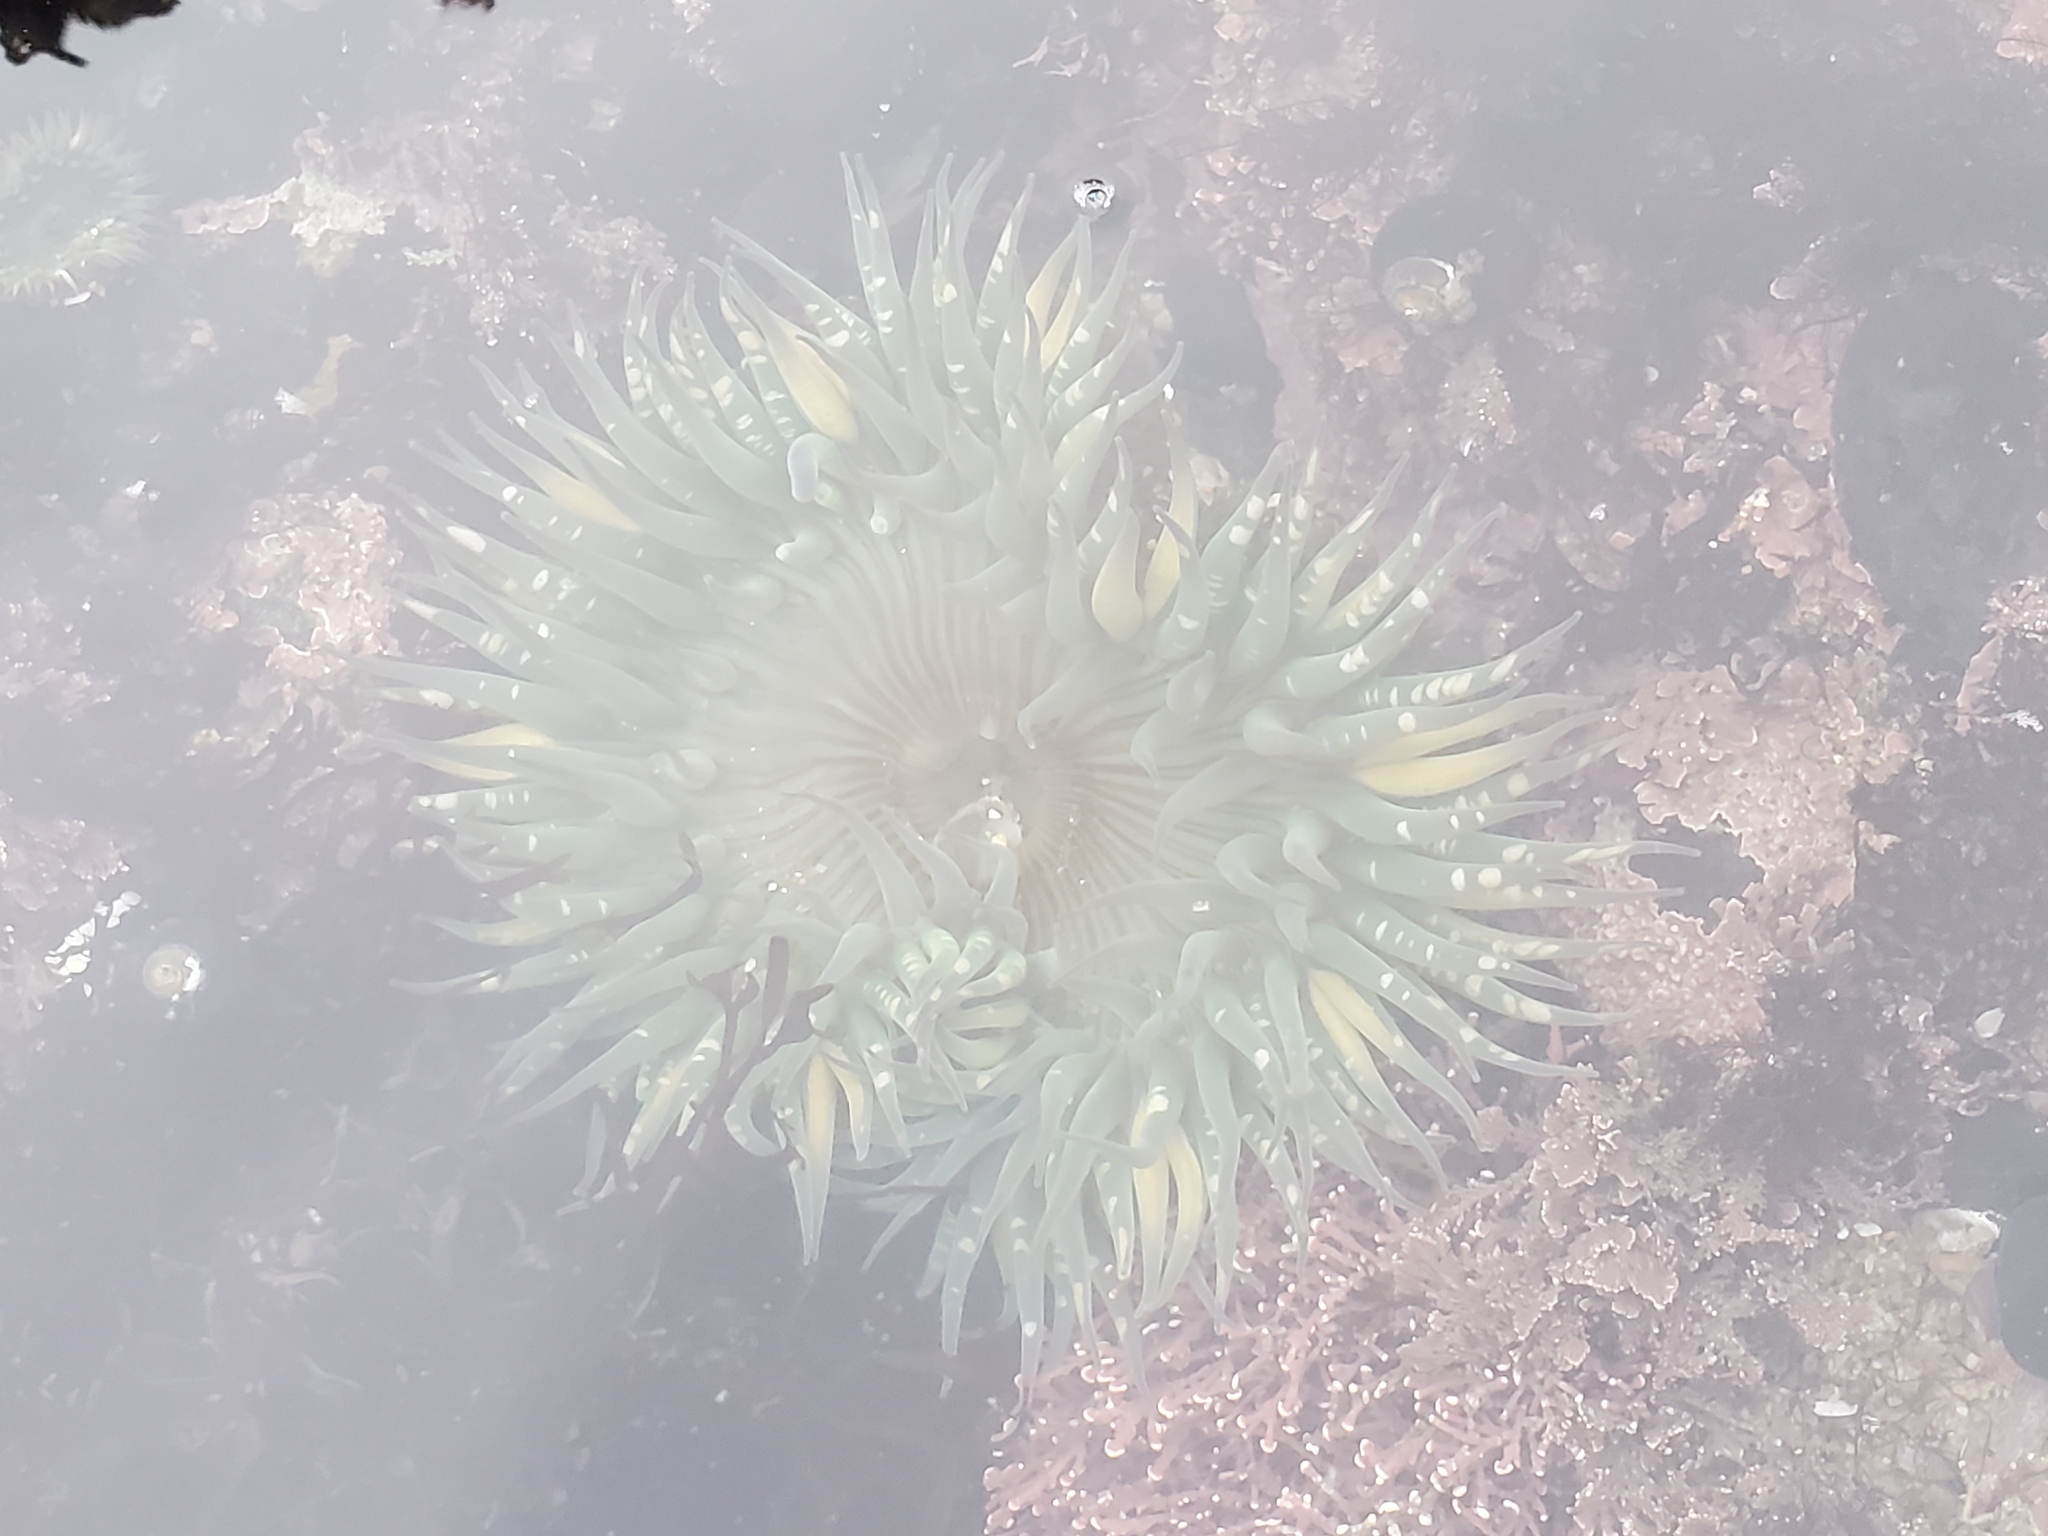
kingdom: Animalia
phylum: Cnidaria
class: Anthozoa
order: Actiniaria
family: Actiniidae
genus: Anthopleura
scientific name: Anthopleura sola
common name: Sun anemone
